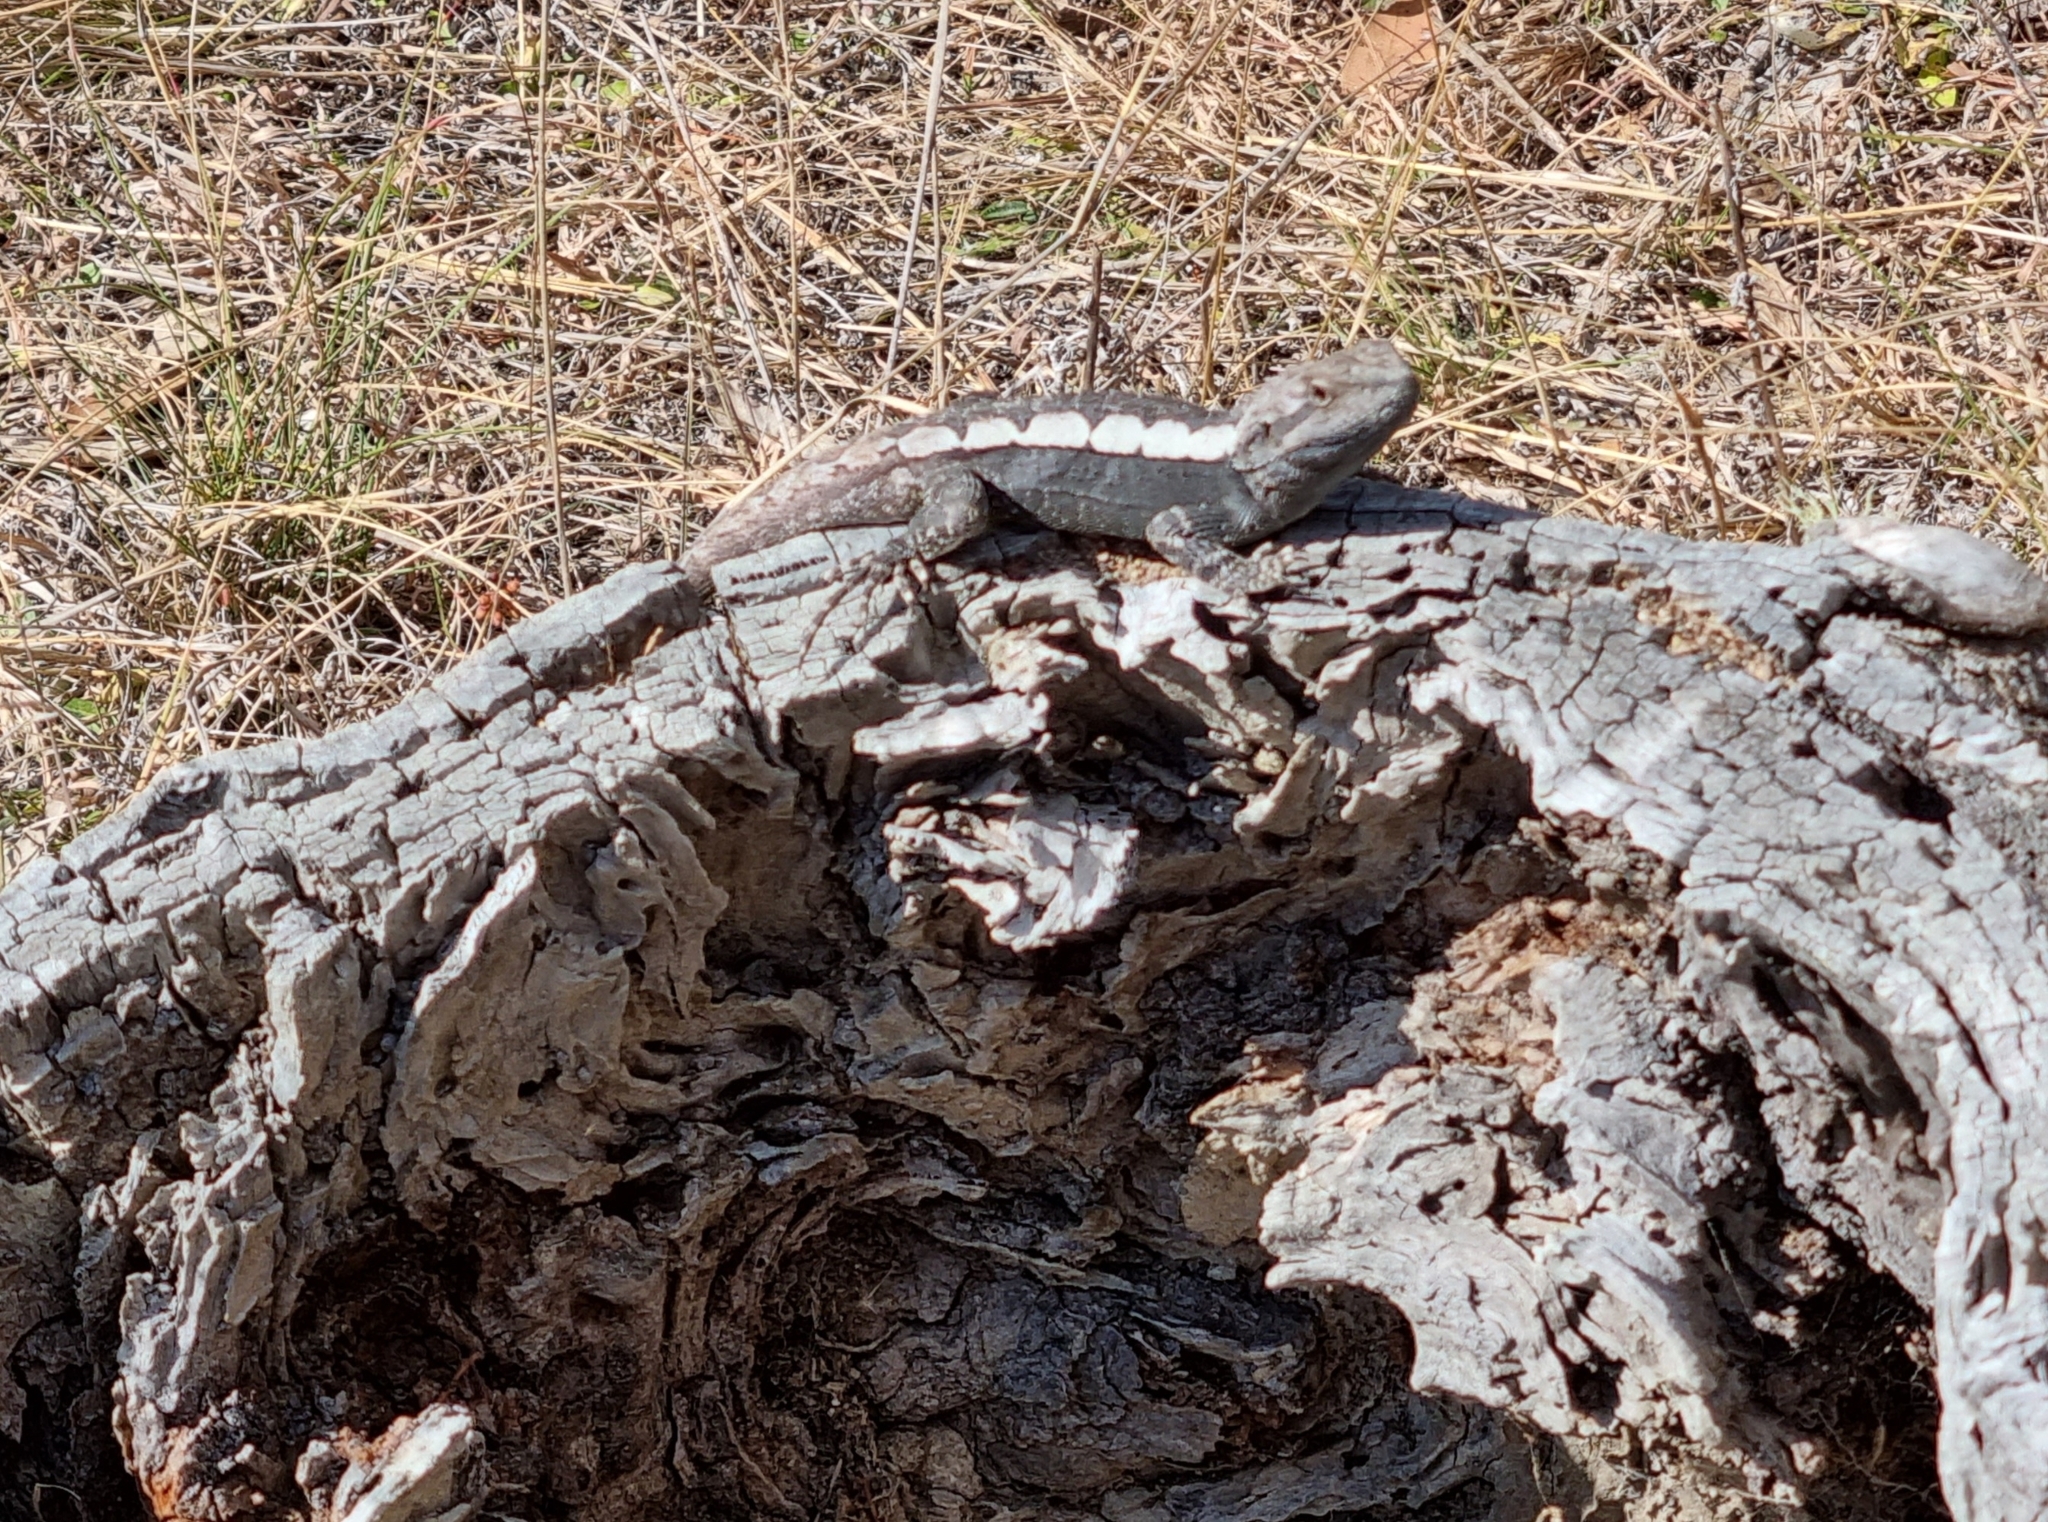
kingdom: Animalia
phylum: Chordata
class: Squamata
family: Agamidae
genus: Amphibolurus
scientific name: Amphibolurus muricatus
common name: Jacky lizard
